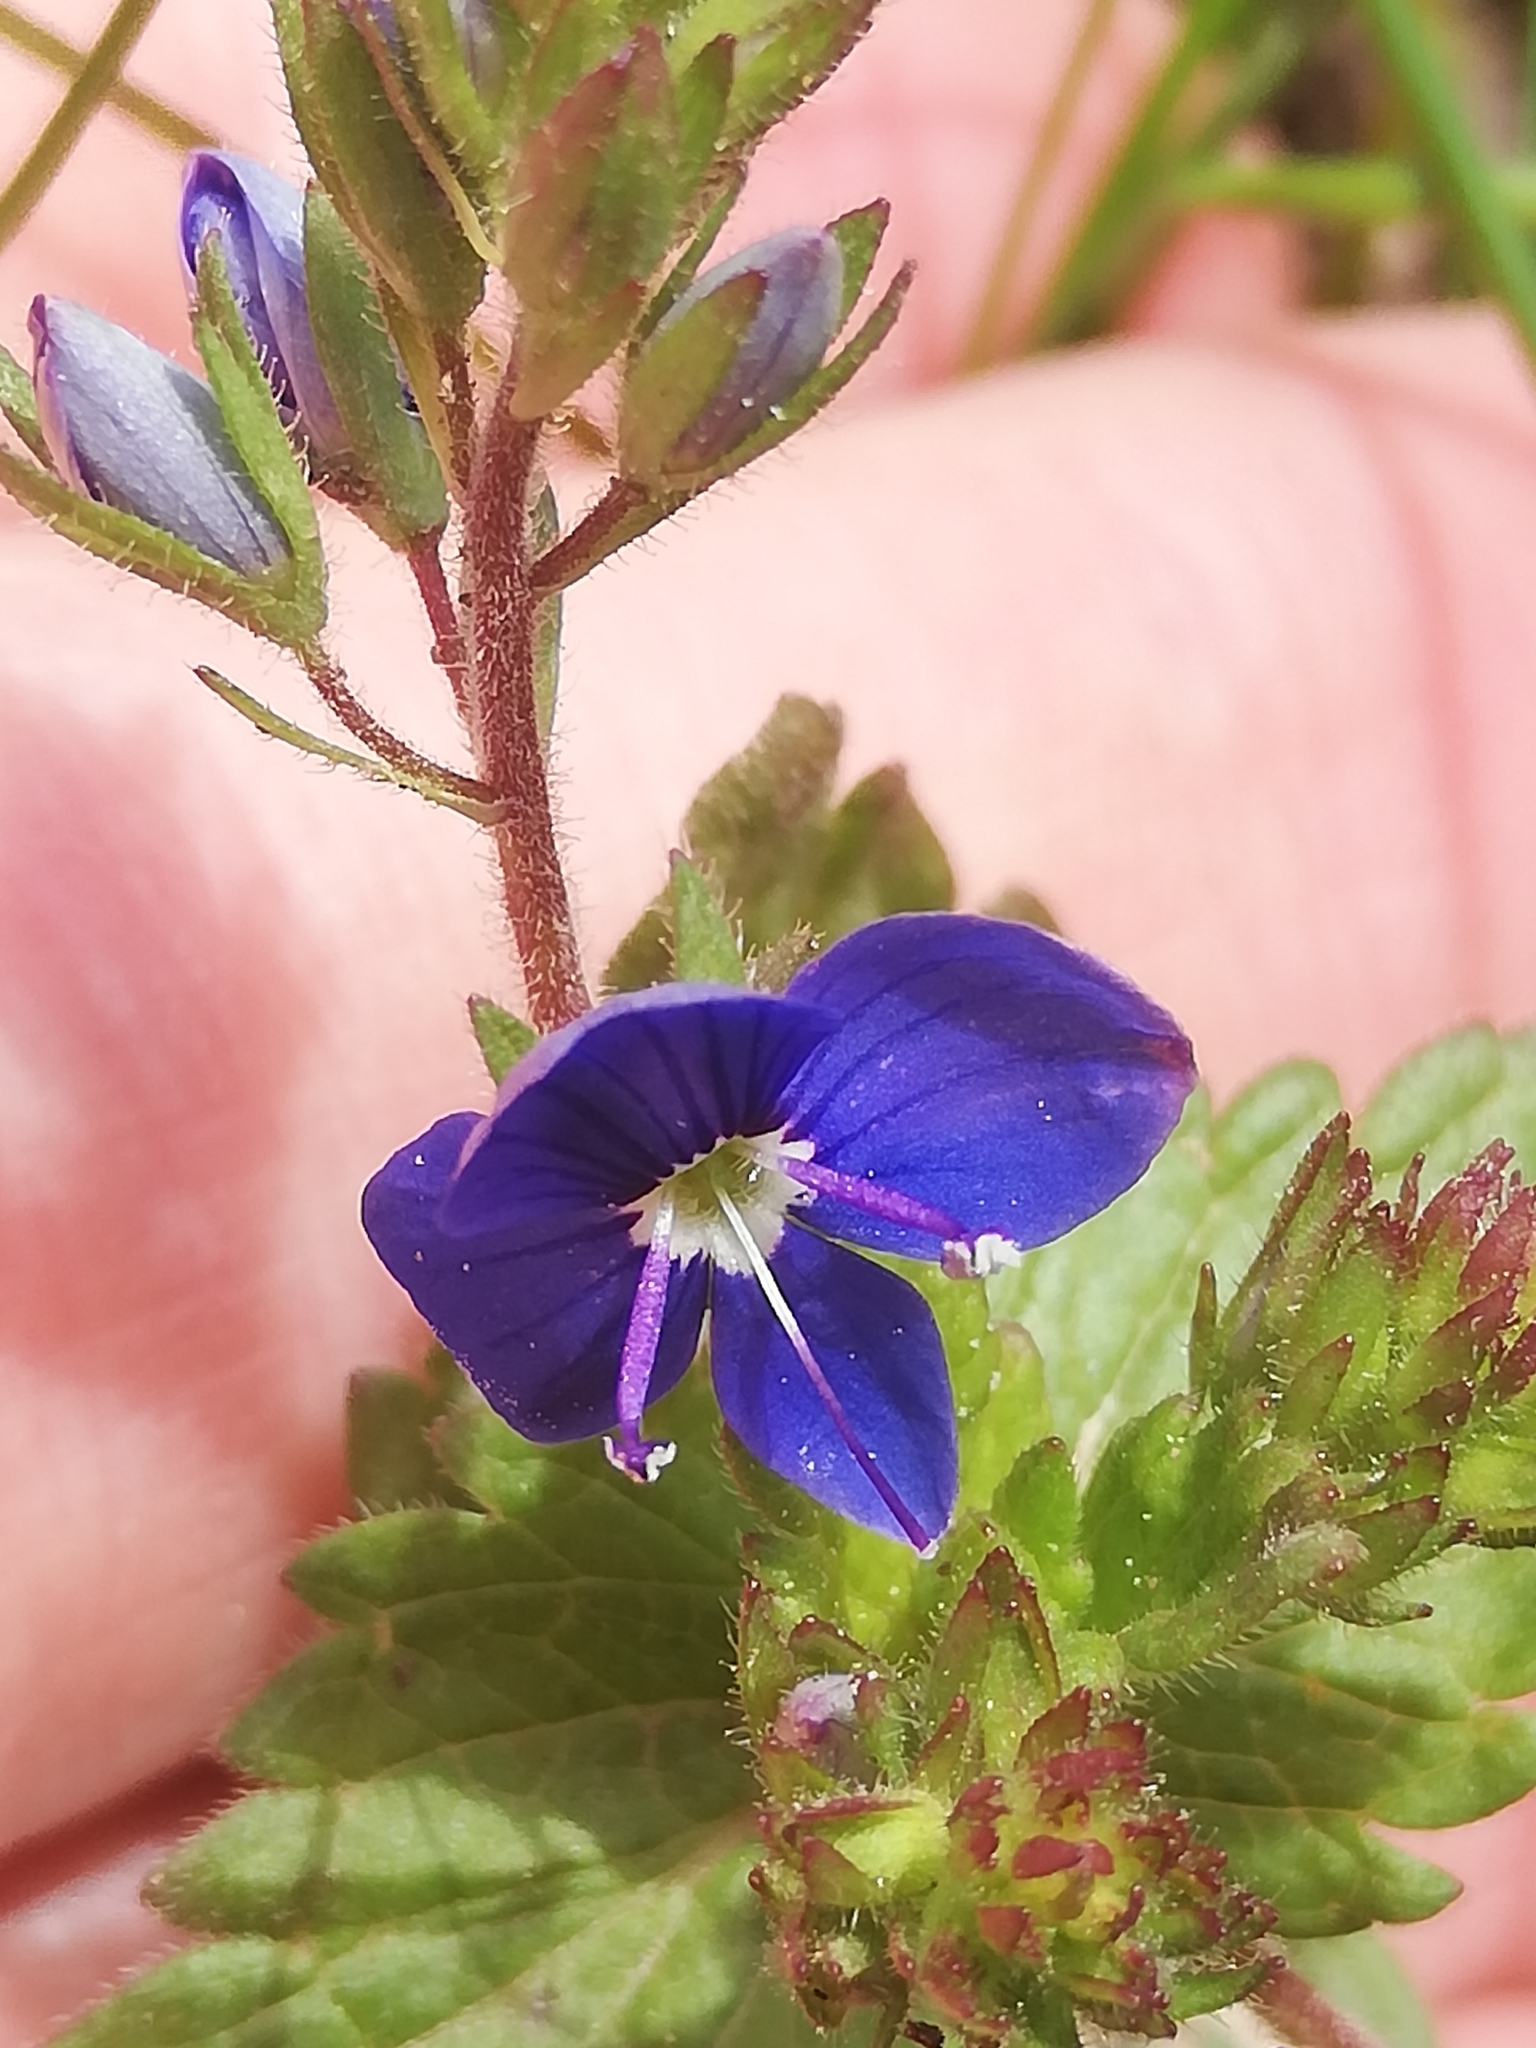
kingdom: Plantae
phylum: Tracheophyta
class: Magnoliopsida
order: Lamiales
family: Plantaginaceae
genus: Veronica
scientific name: Veronica chamaedrys
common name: Germander speedwell
